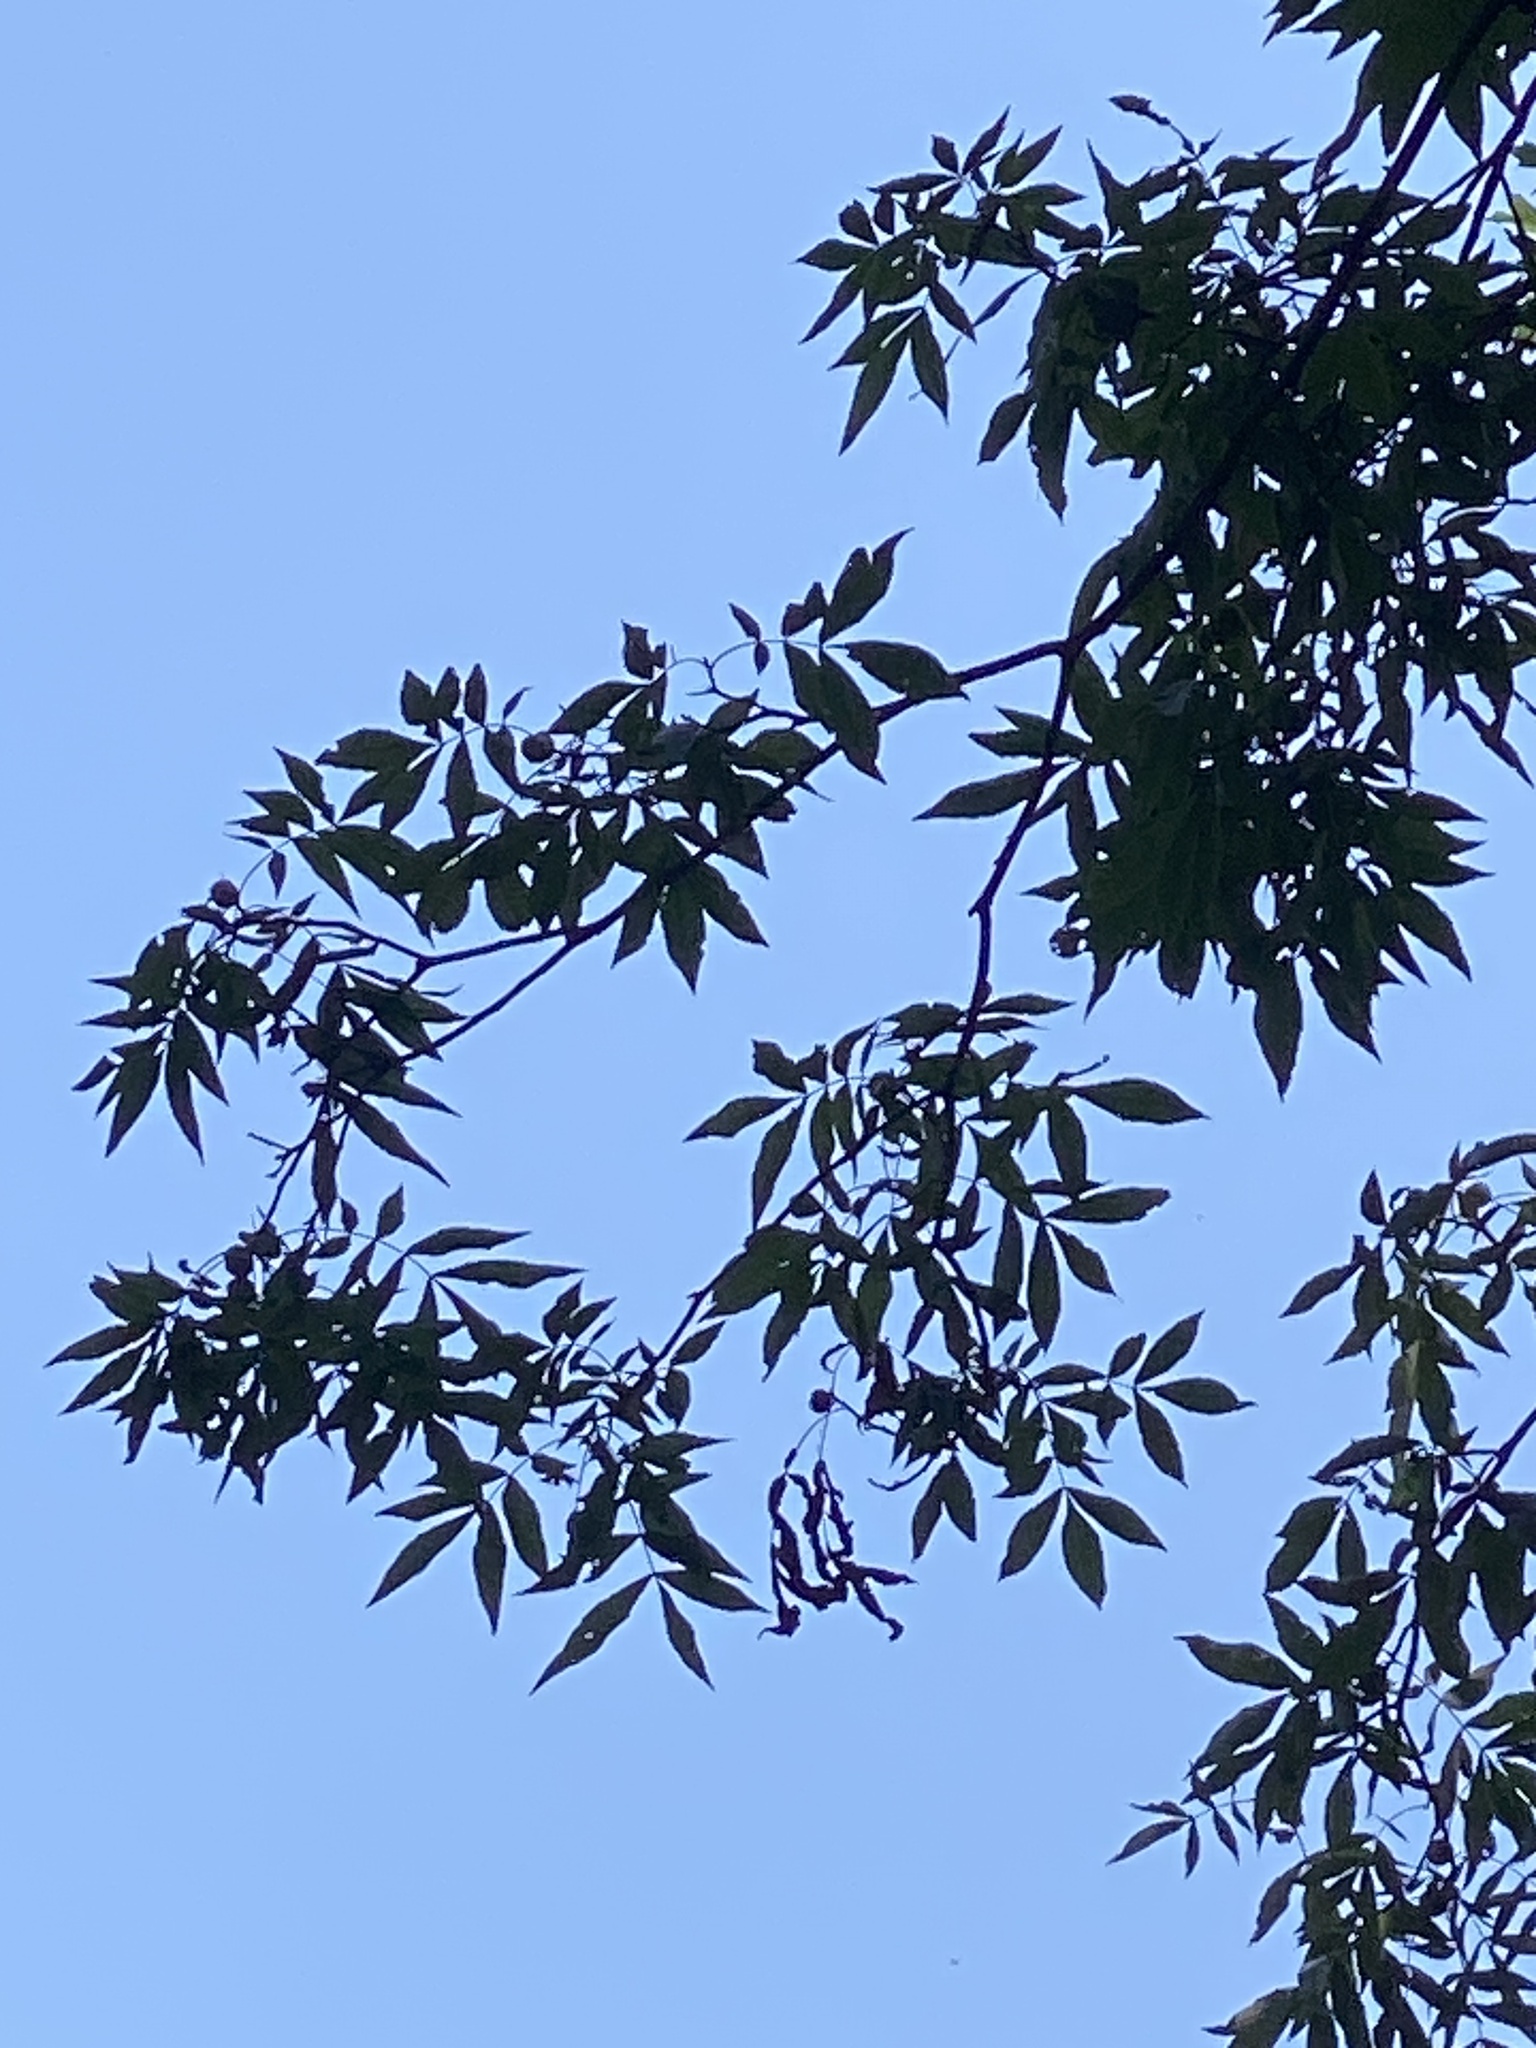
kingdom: Plantae
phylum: Tracheophyta
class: Magnoliopsida
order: Fagales
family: Juglandaceae
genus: Carya
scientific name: Carya cordiformis
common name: Bitternut hickory
